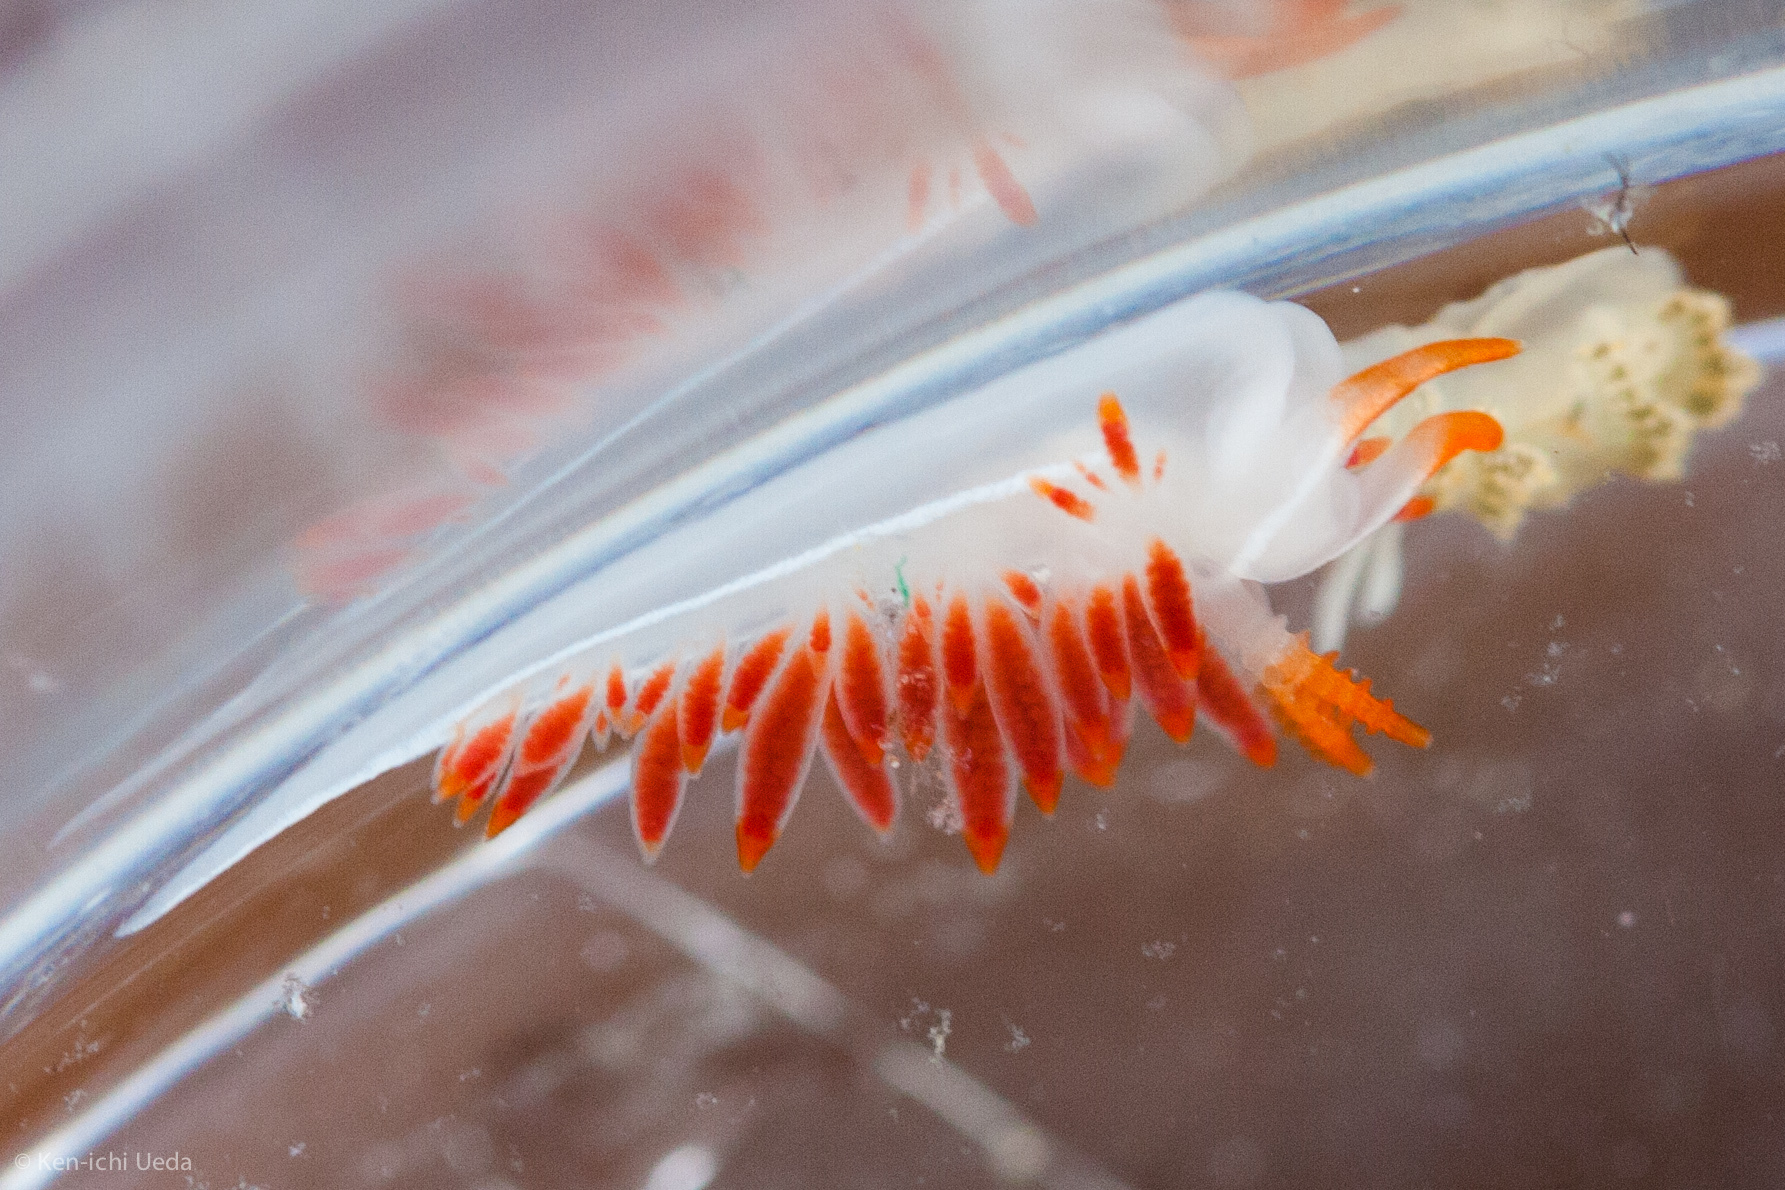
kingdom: Animalia
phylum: Mollusca
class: Gastropoda
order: Nudibranchia
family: Coryphellidae
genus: Coryphella
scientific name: Coryphella trilineata
